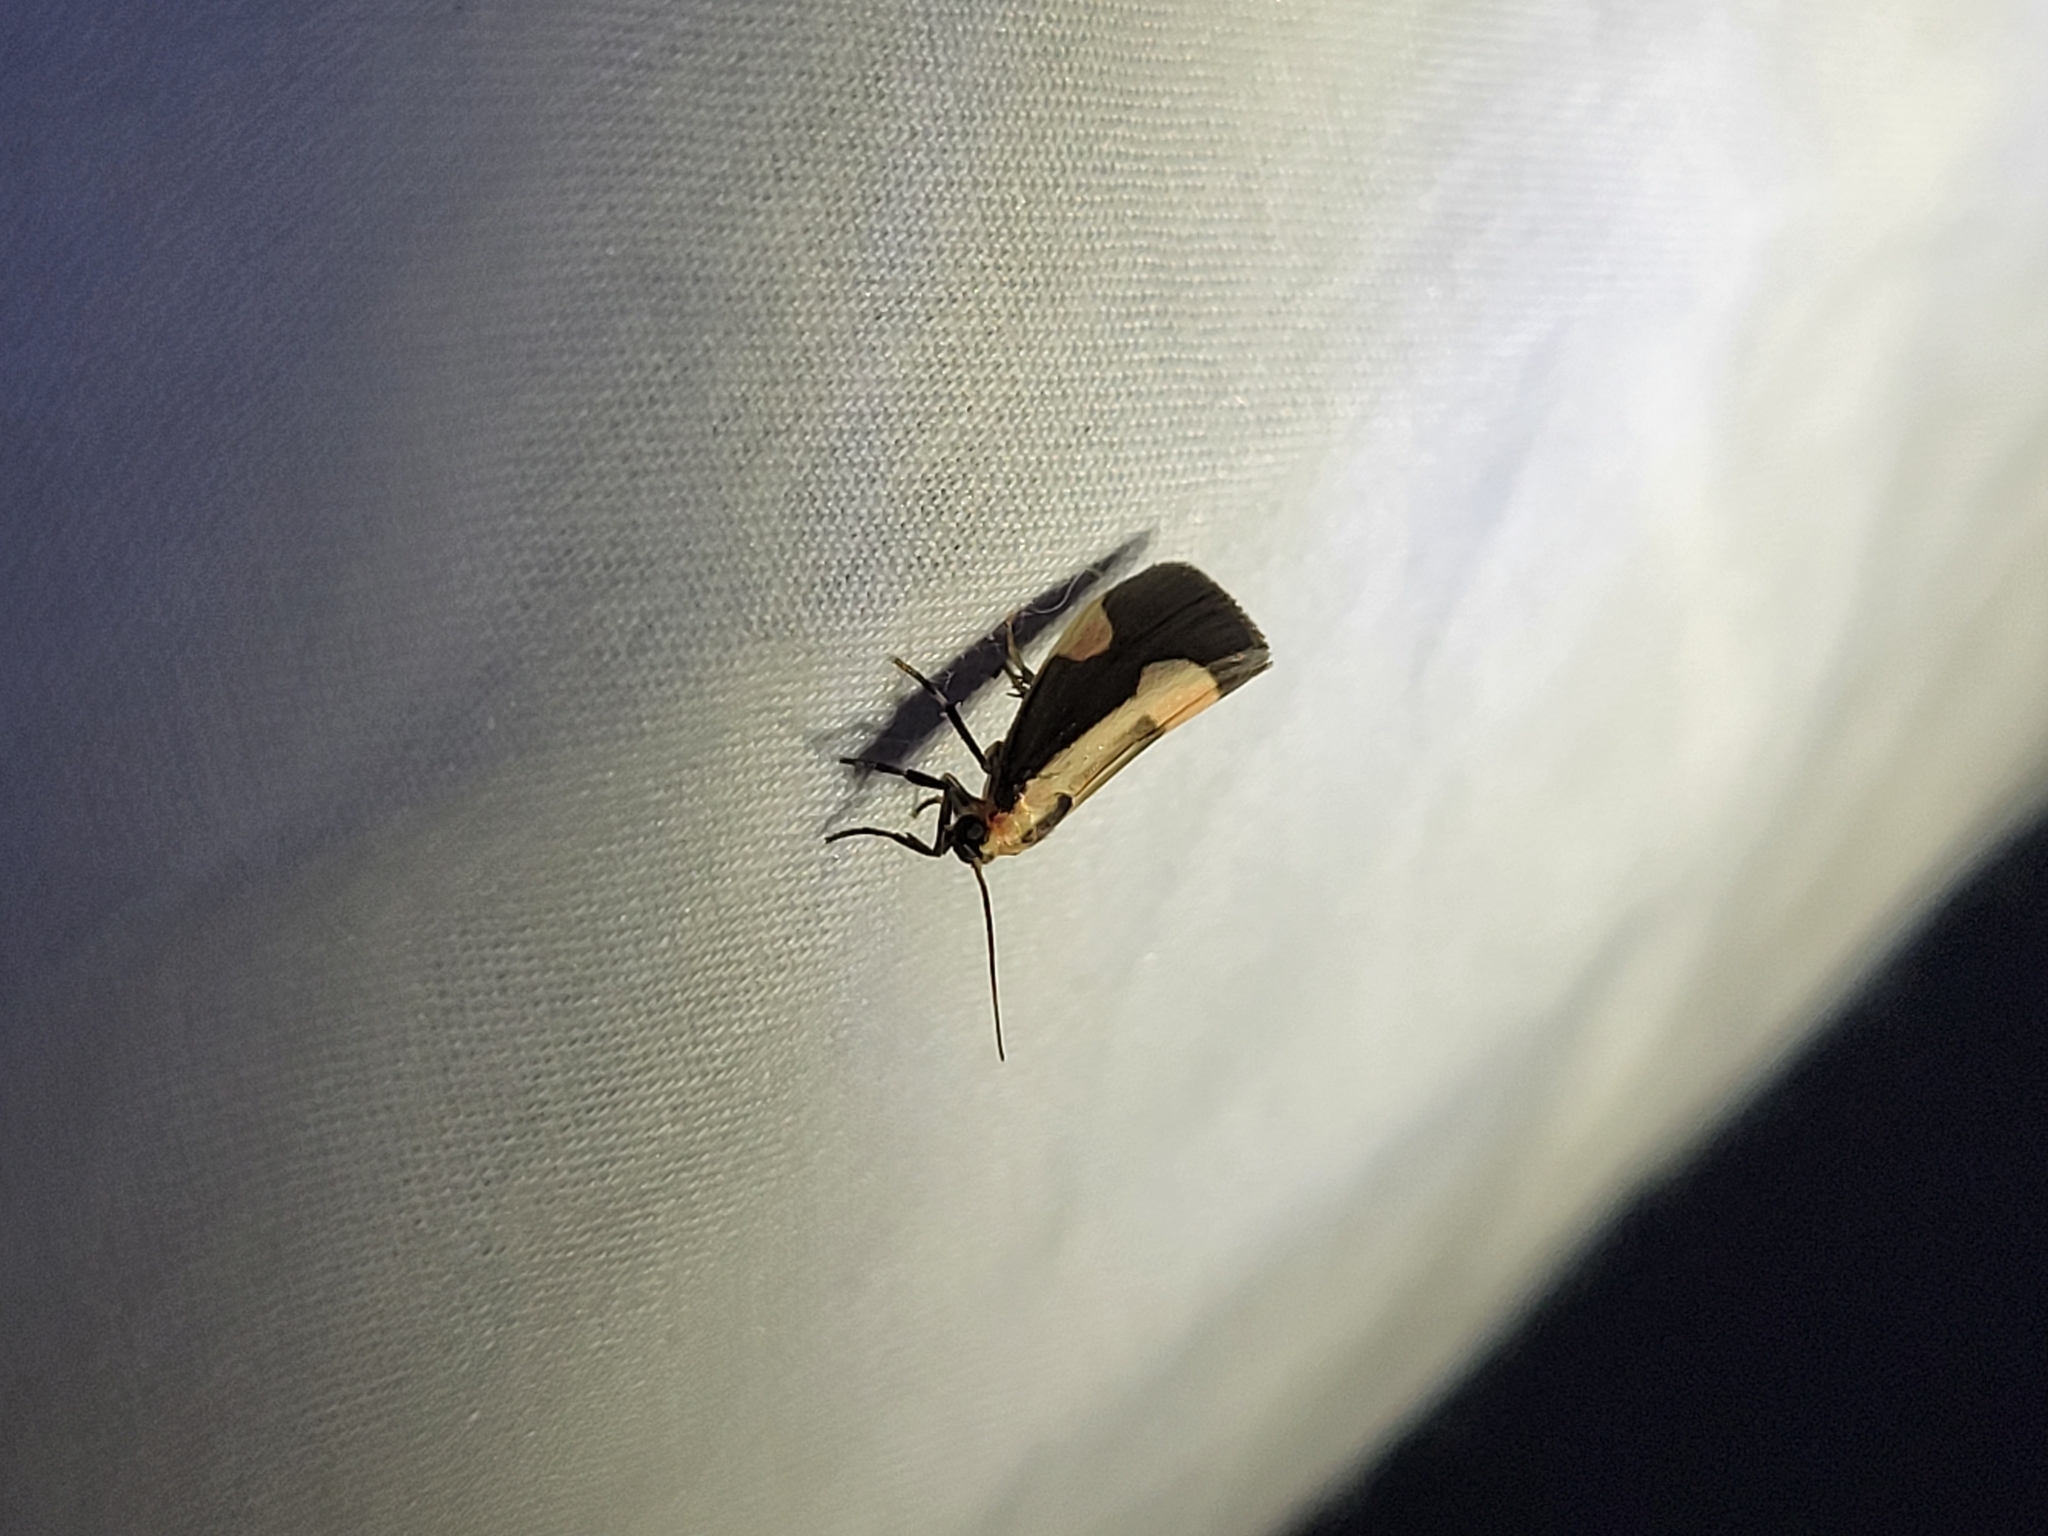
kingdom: Animalia
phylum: Arthropoda
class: Insecta
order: Lepidoptera
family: Erebidae
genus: Cisthene
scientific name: Cisthene packardii
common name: Packard's lichen moth
